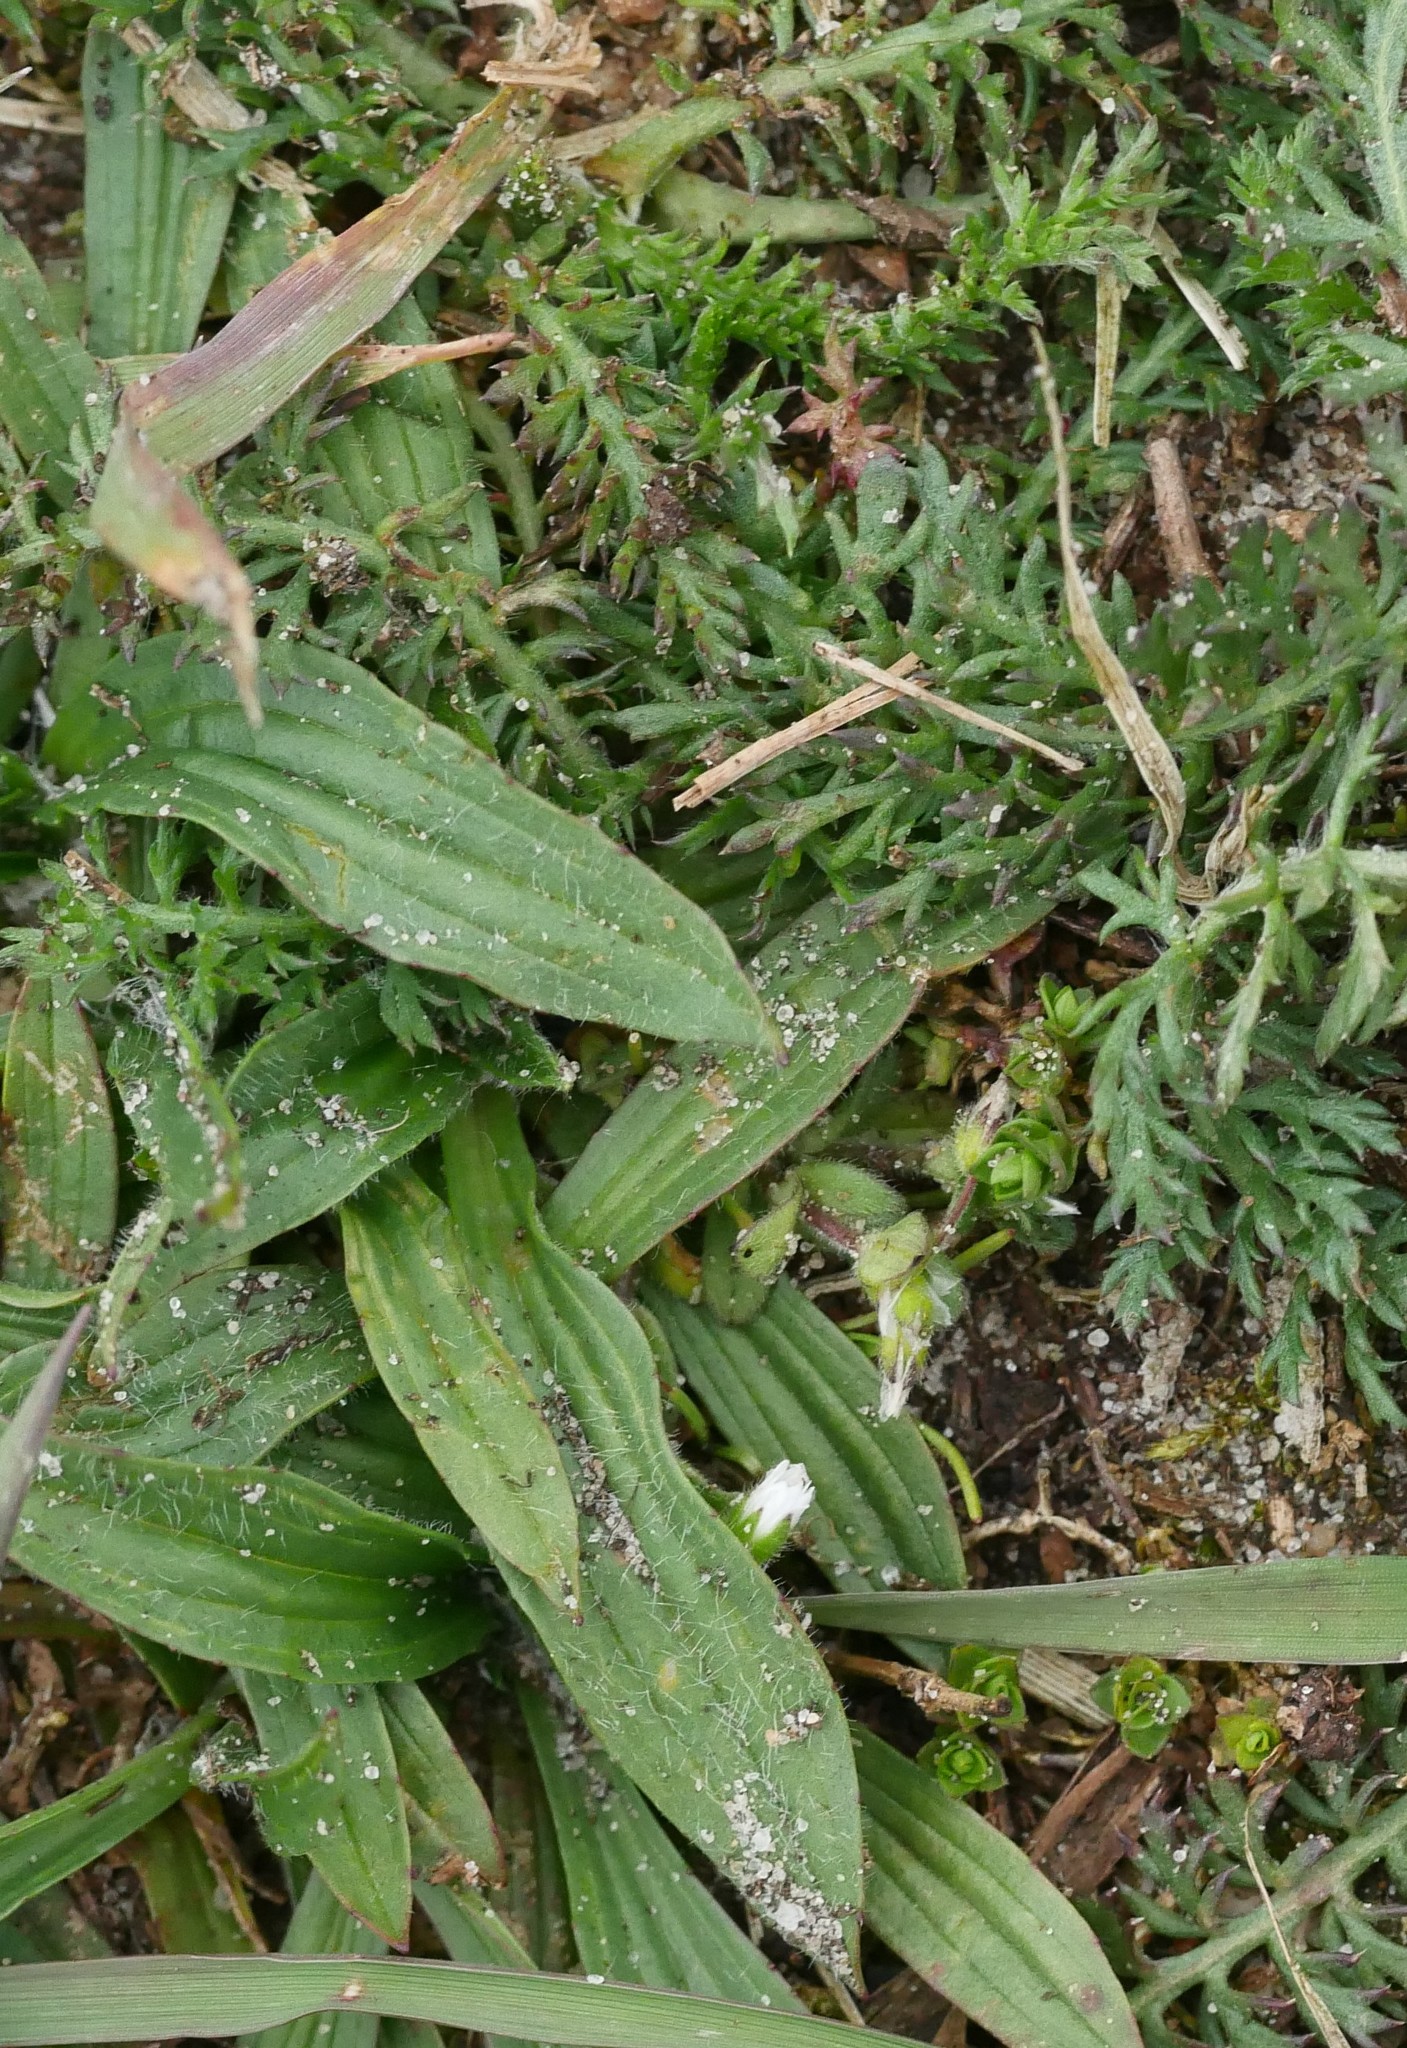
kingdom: Plantae
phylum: Tracheophyta
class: Magnoliopsida
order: Asterales
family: Asteraceae
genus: Achillea
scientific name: Achillea millefolium
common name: Yarrow
